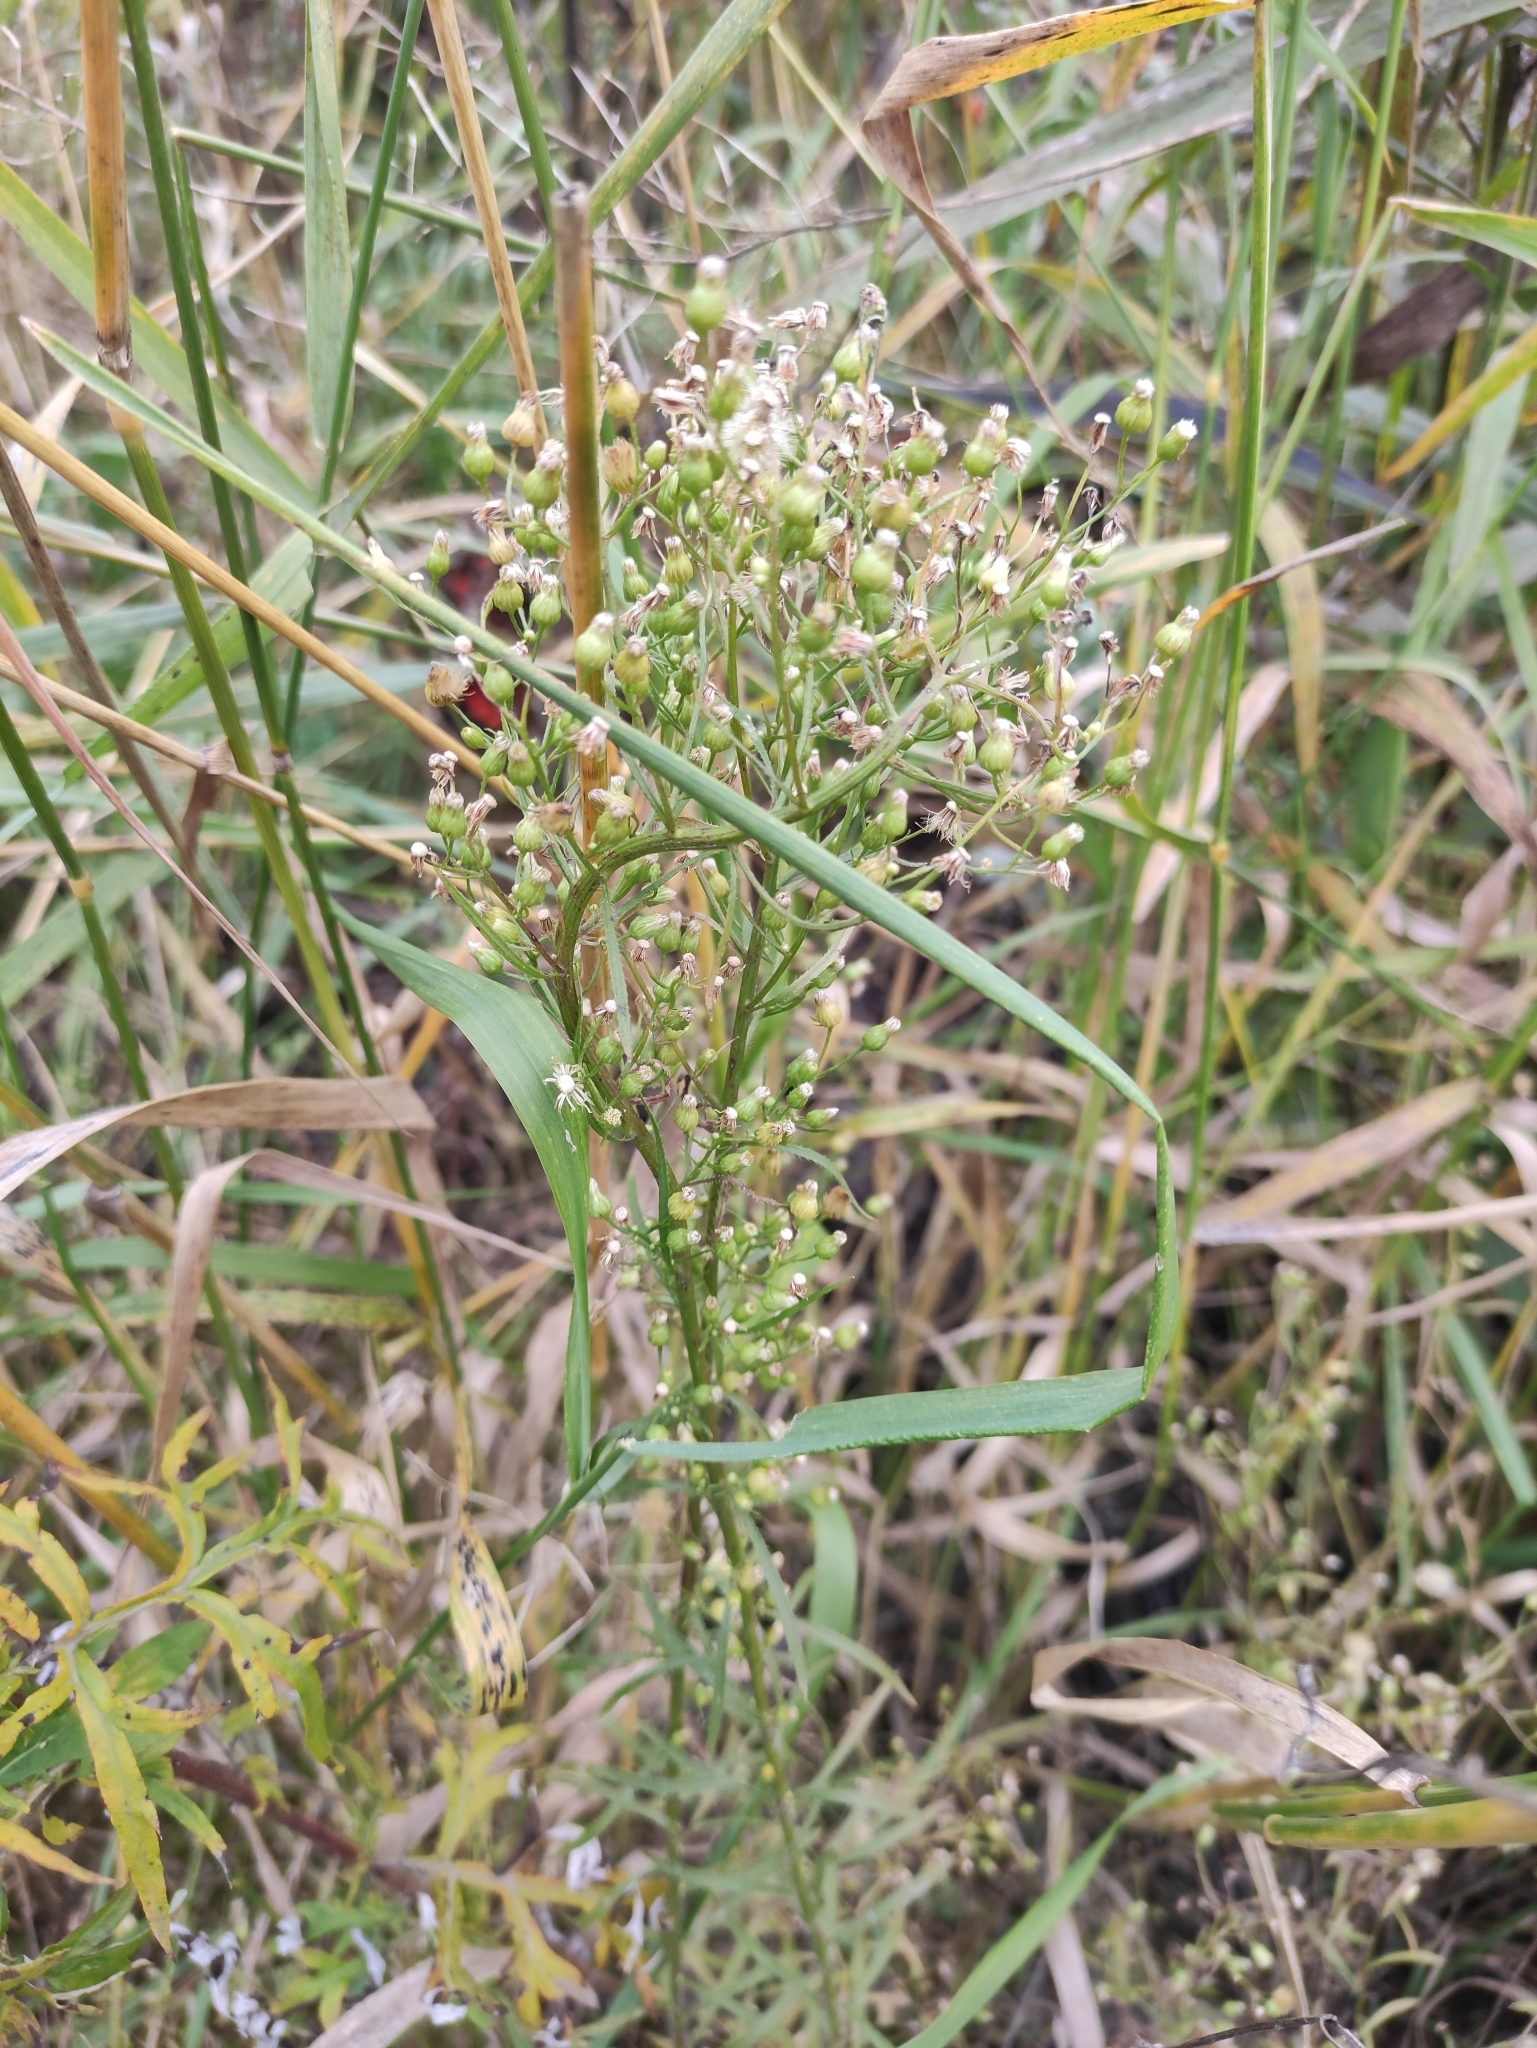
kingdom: Plantae
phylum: Tracheophyta
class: Magnoliopsida
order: Asterales
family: Asteraceae
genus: Erigeron
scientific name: Erigeron canadensis
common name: Canadian fleabane
